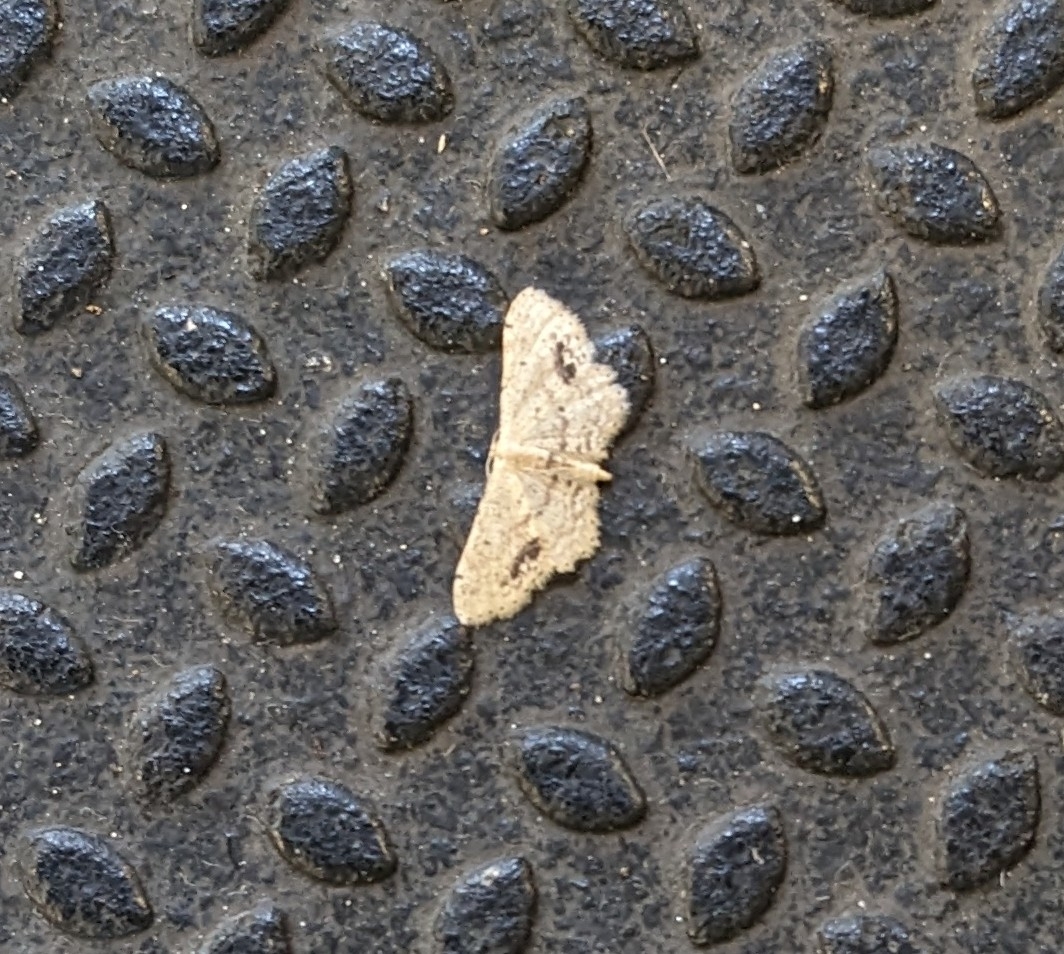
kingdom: Animalia
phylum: Arthropoda
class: Insecta
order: Lepidoptera
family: Geometridae
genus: Idaea
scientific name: Idaea dimidiata
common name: Single-dotted wave
